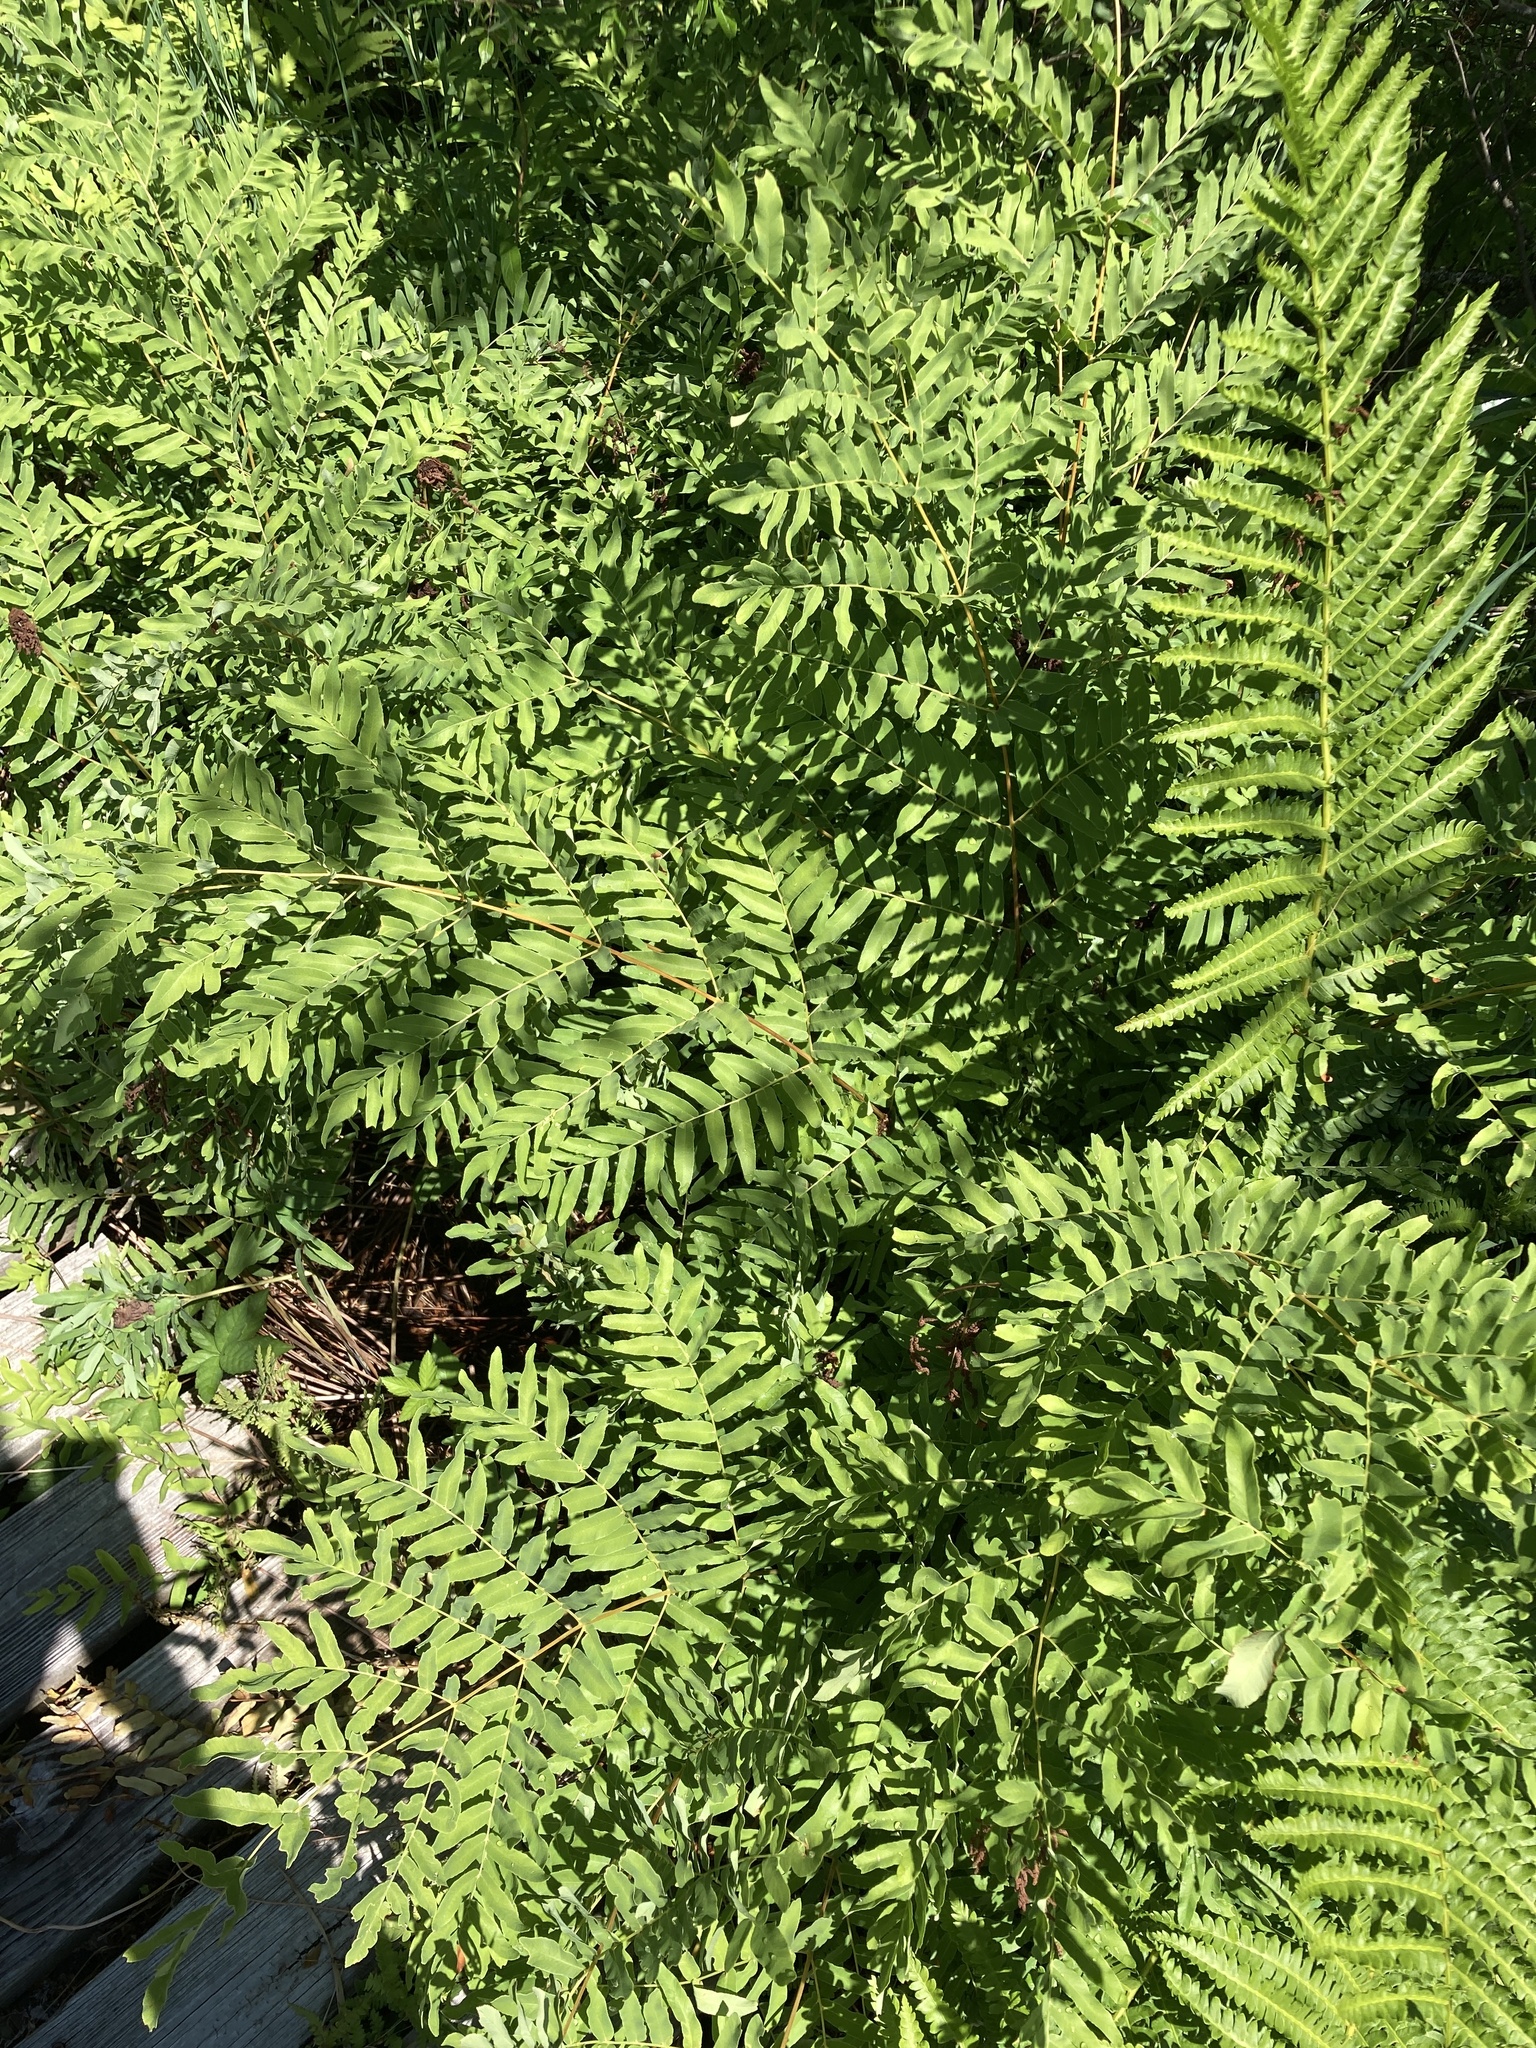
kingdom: Plantae
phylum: Tracheophyta
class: Polypodiopsida
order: Osmundales
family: Osmundaceae
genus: Osmunda
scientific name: Osmunda spectabilis
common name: American royal fern
